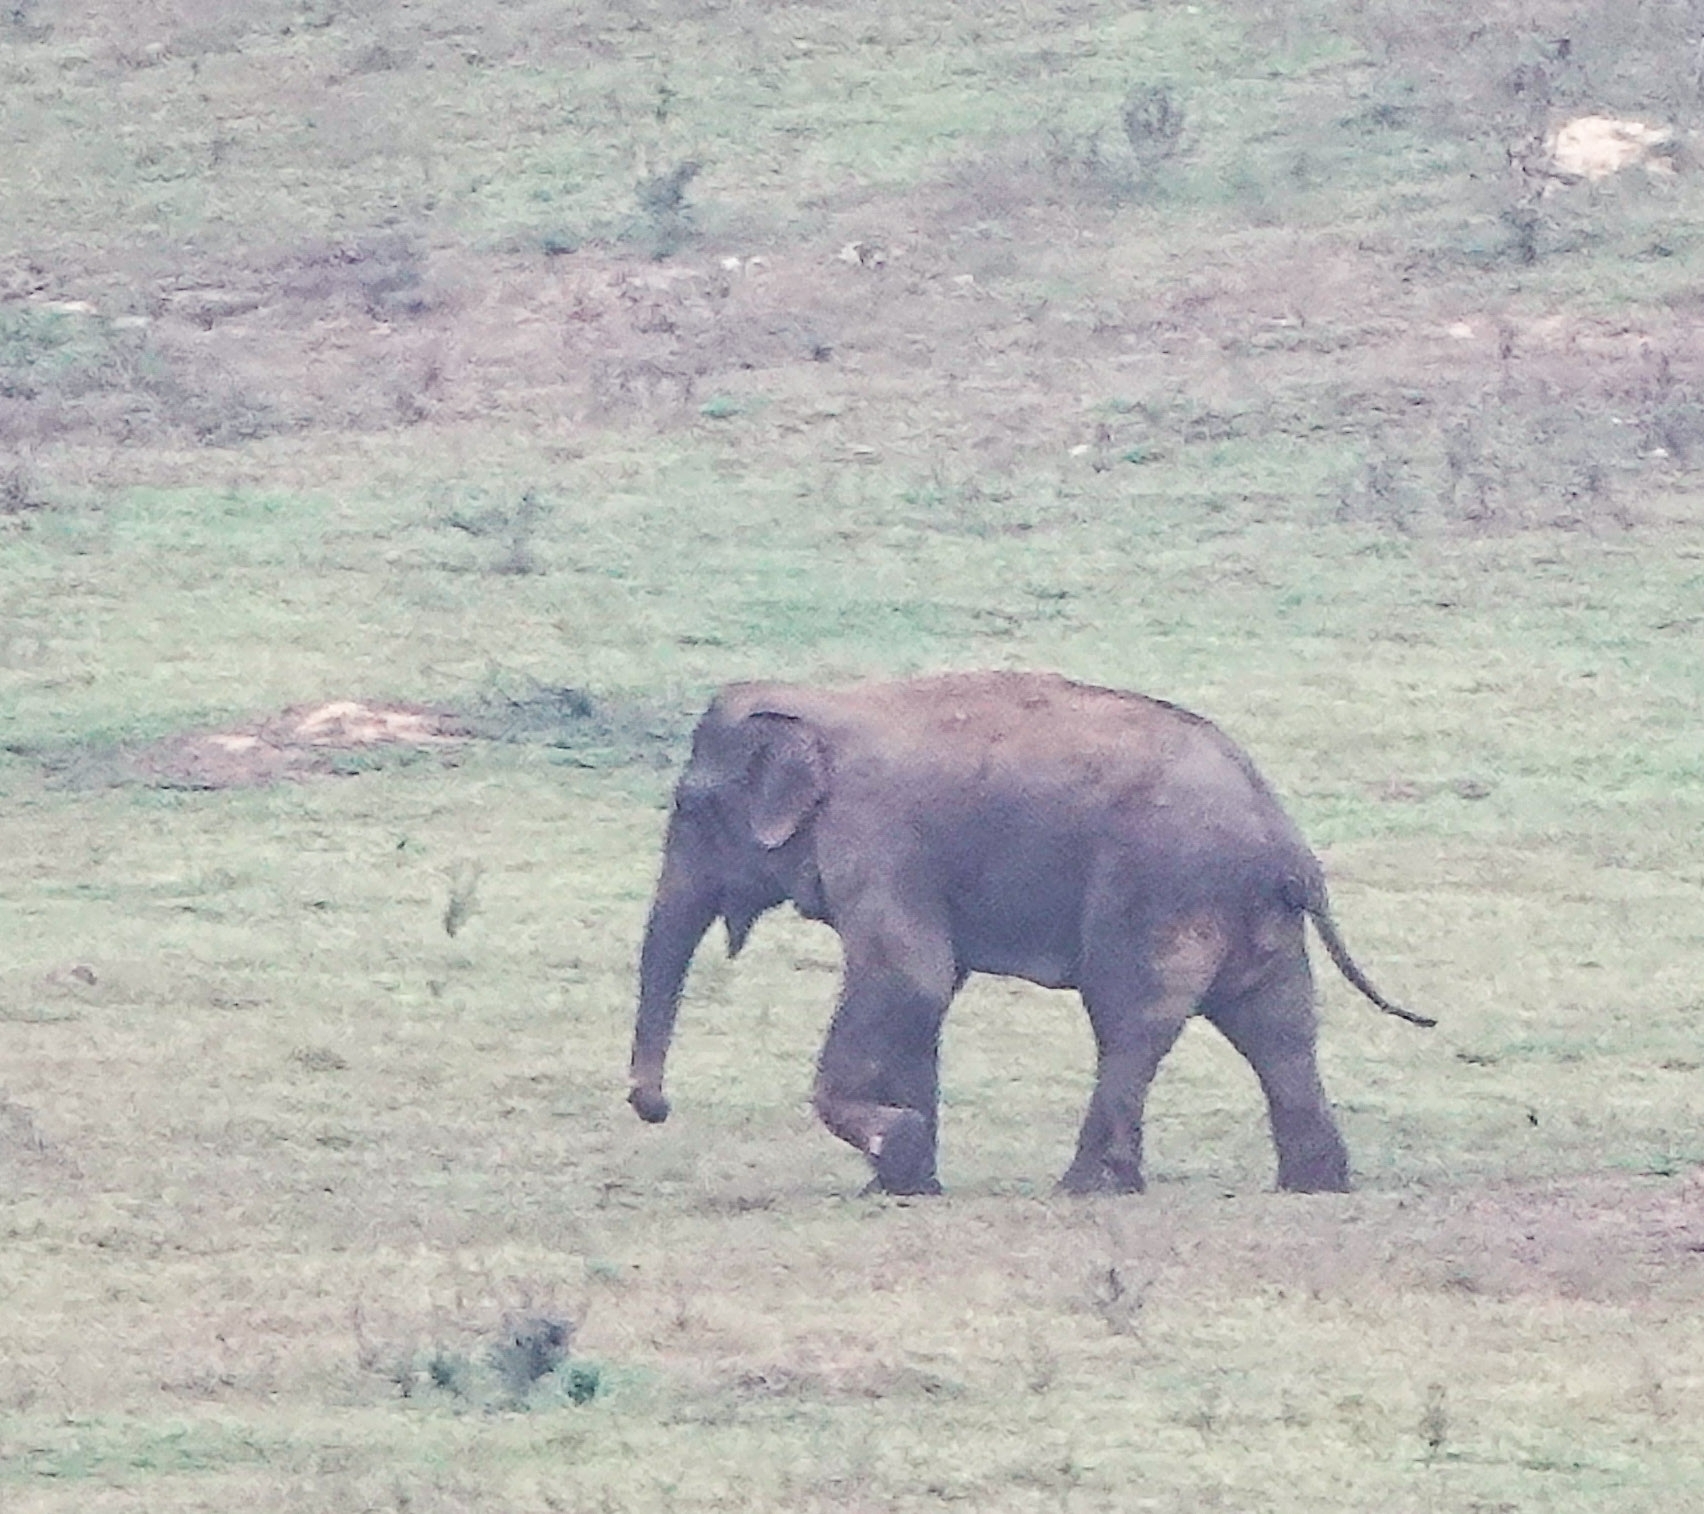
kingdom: Animalia
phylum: Chordata
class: Mammalia
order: Proboscidea
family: Elephantidae
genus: Elephas
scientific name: Elephas maximus
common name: Asian elephant
